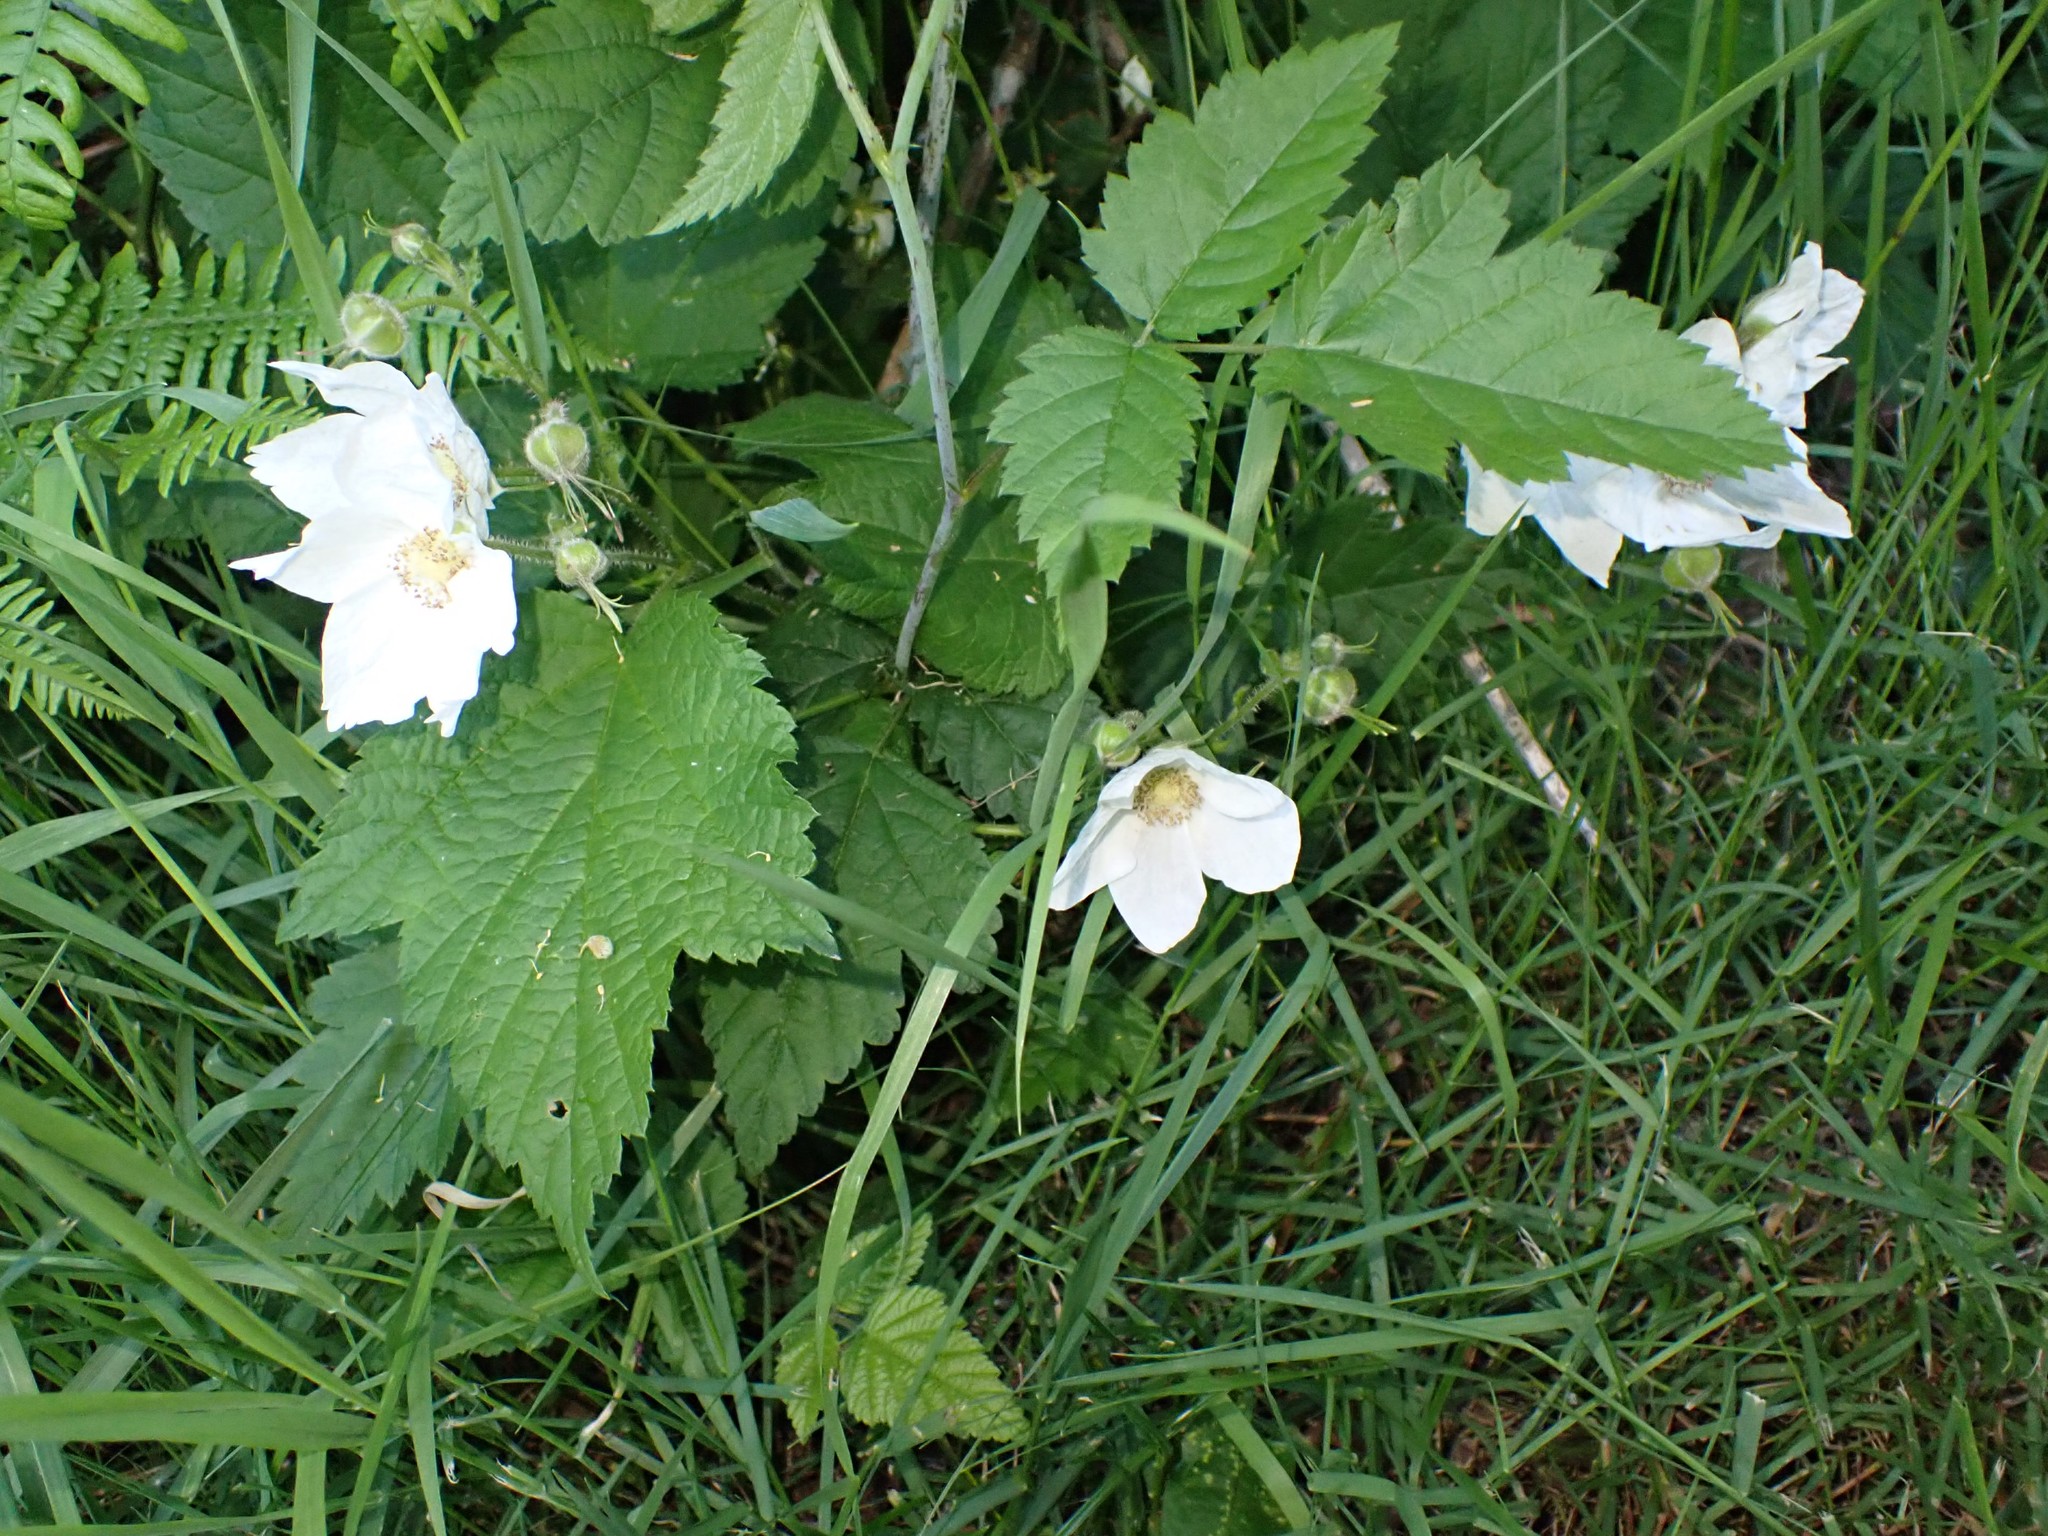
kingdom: Plantae
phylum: Tracheophyta
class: Magnoliopsida
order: Rosales
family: Rosaceae
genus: Rubus
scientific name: Rubus parviflorus
